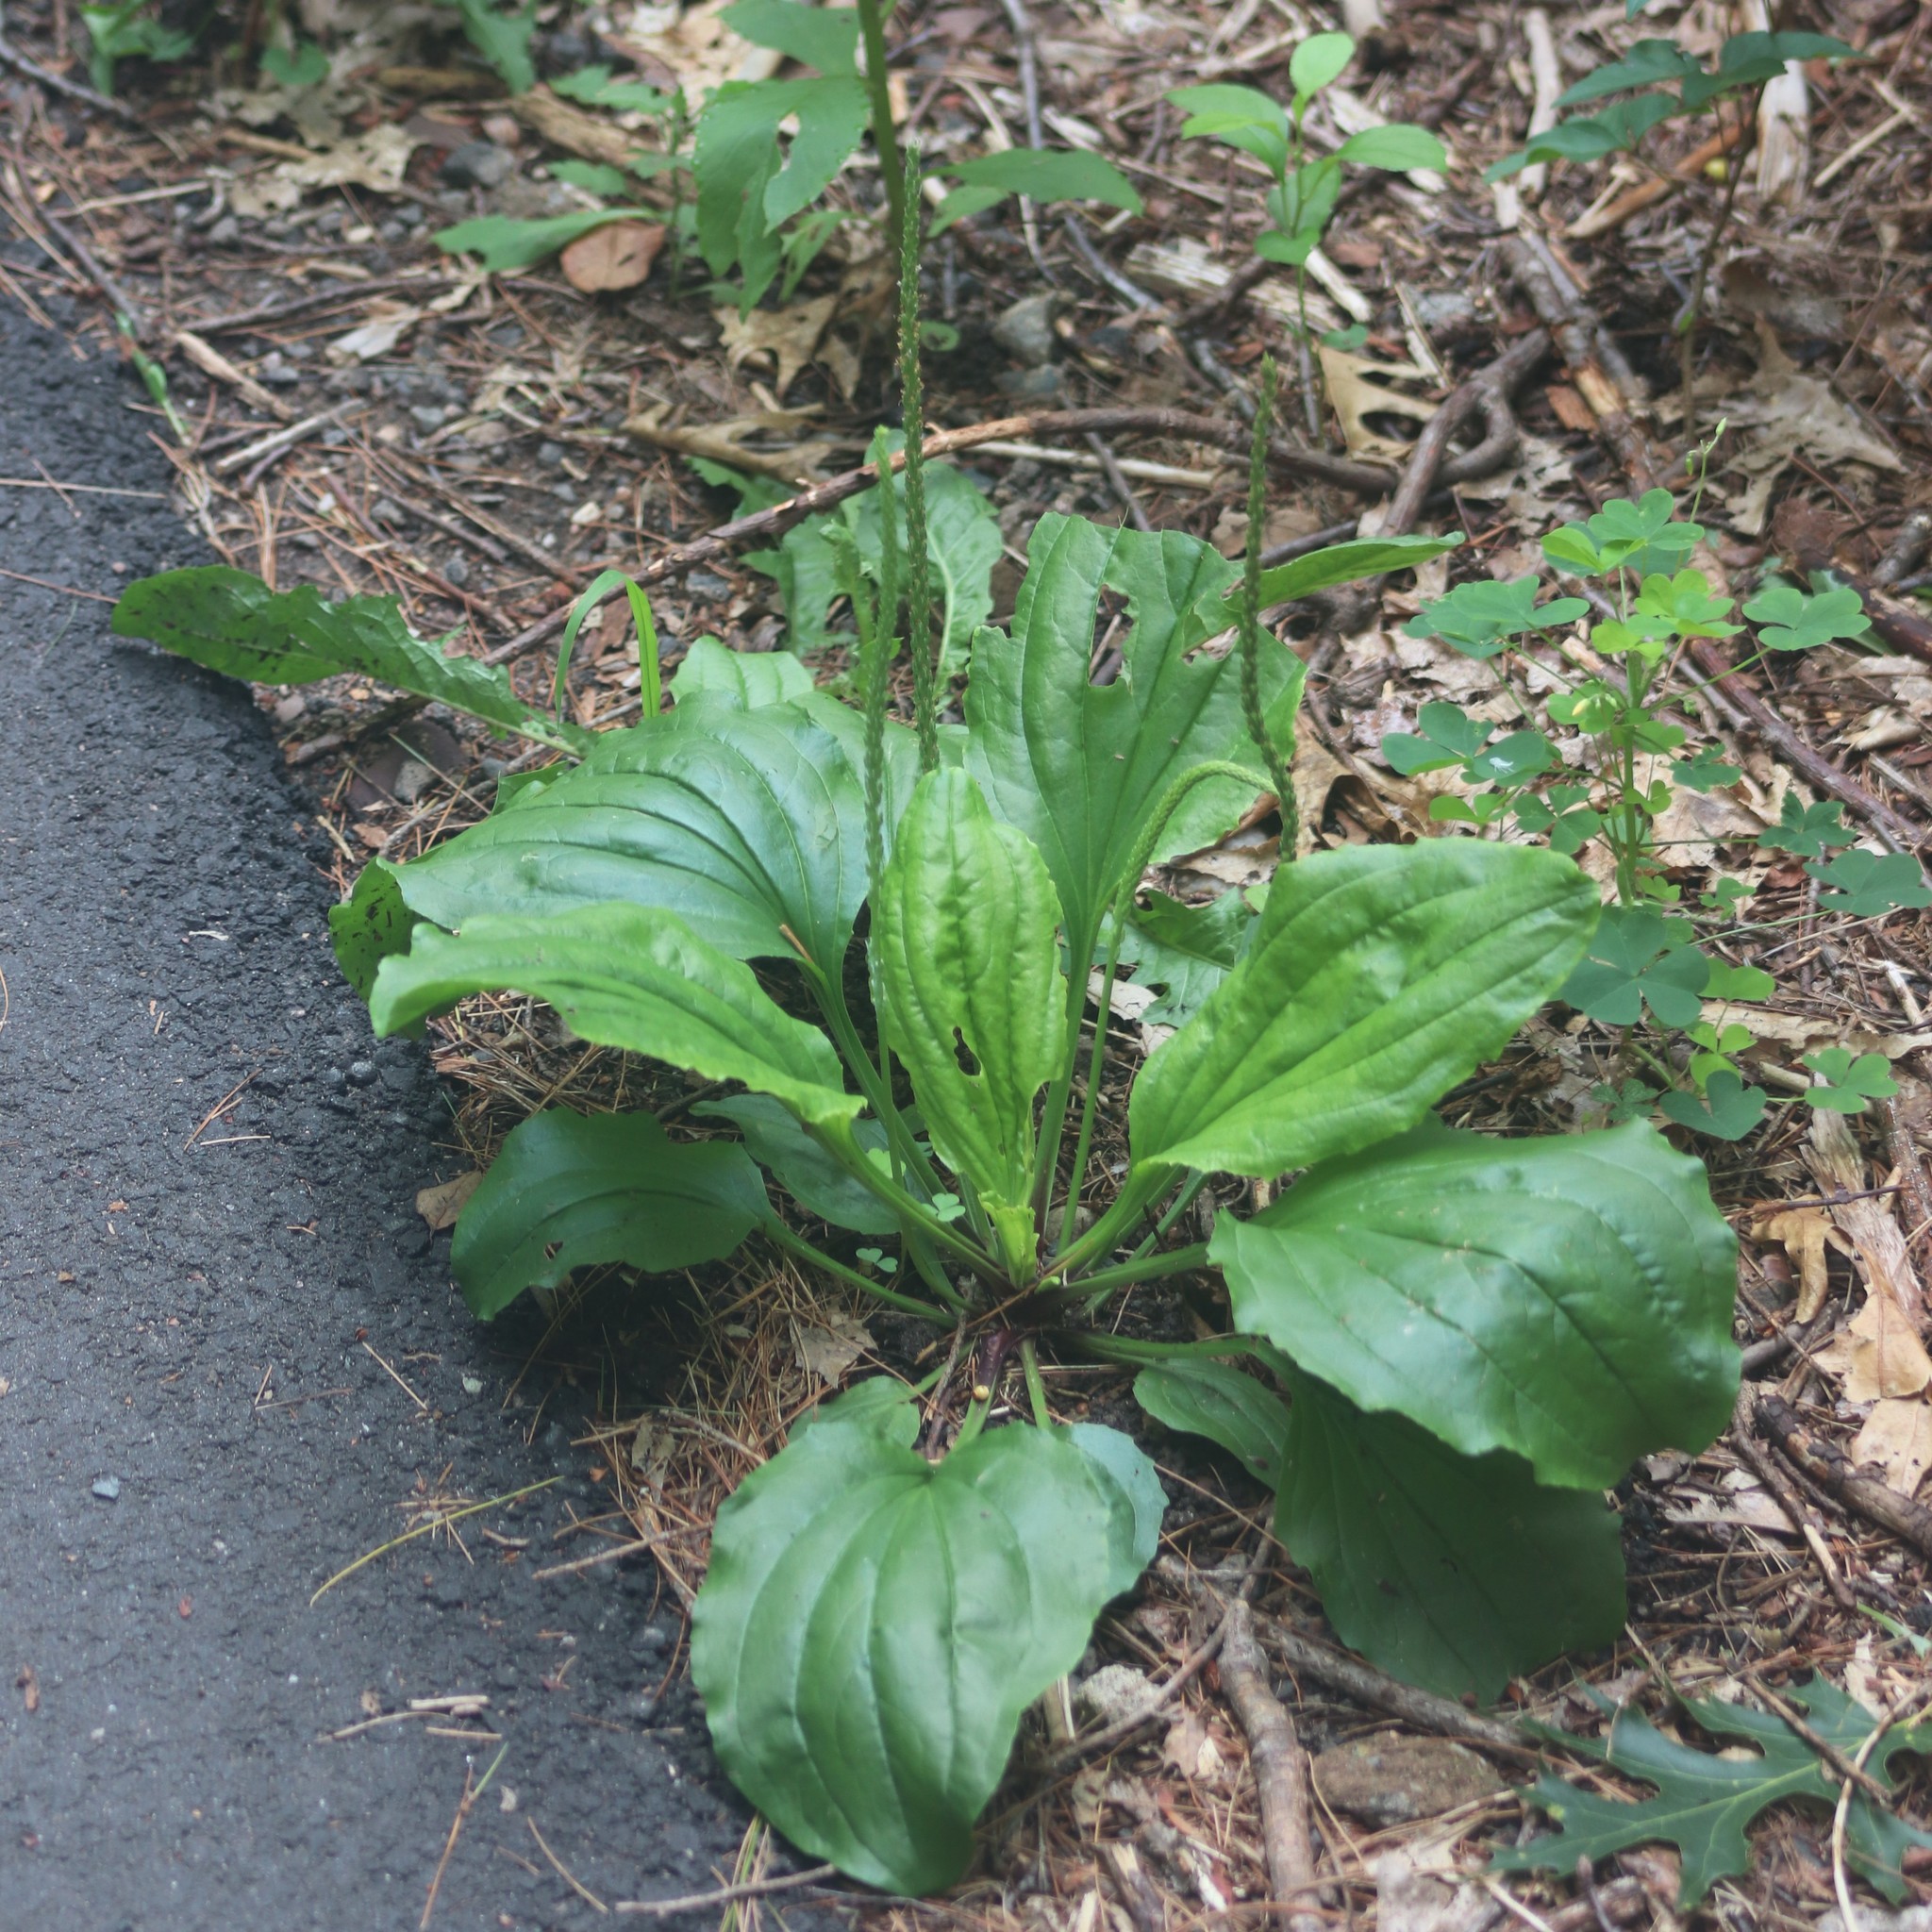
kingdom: Plantae
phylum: Tracheophyta
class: Magnoliopsida
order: Lamiales
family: Plantaginaceae
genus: Plantago
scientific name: Plantago major
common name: Common plantain
